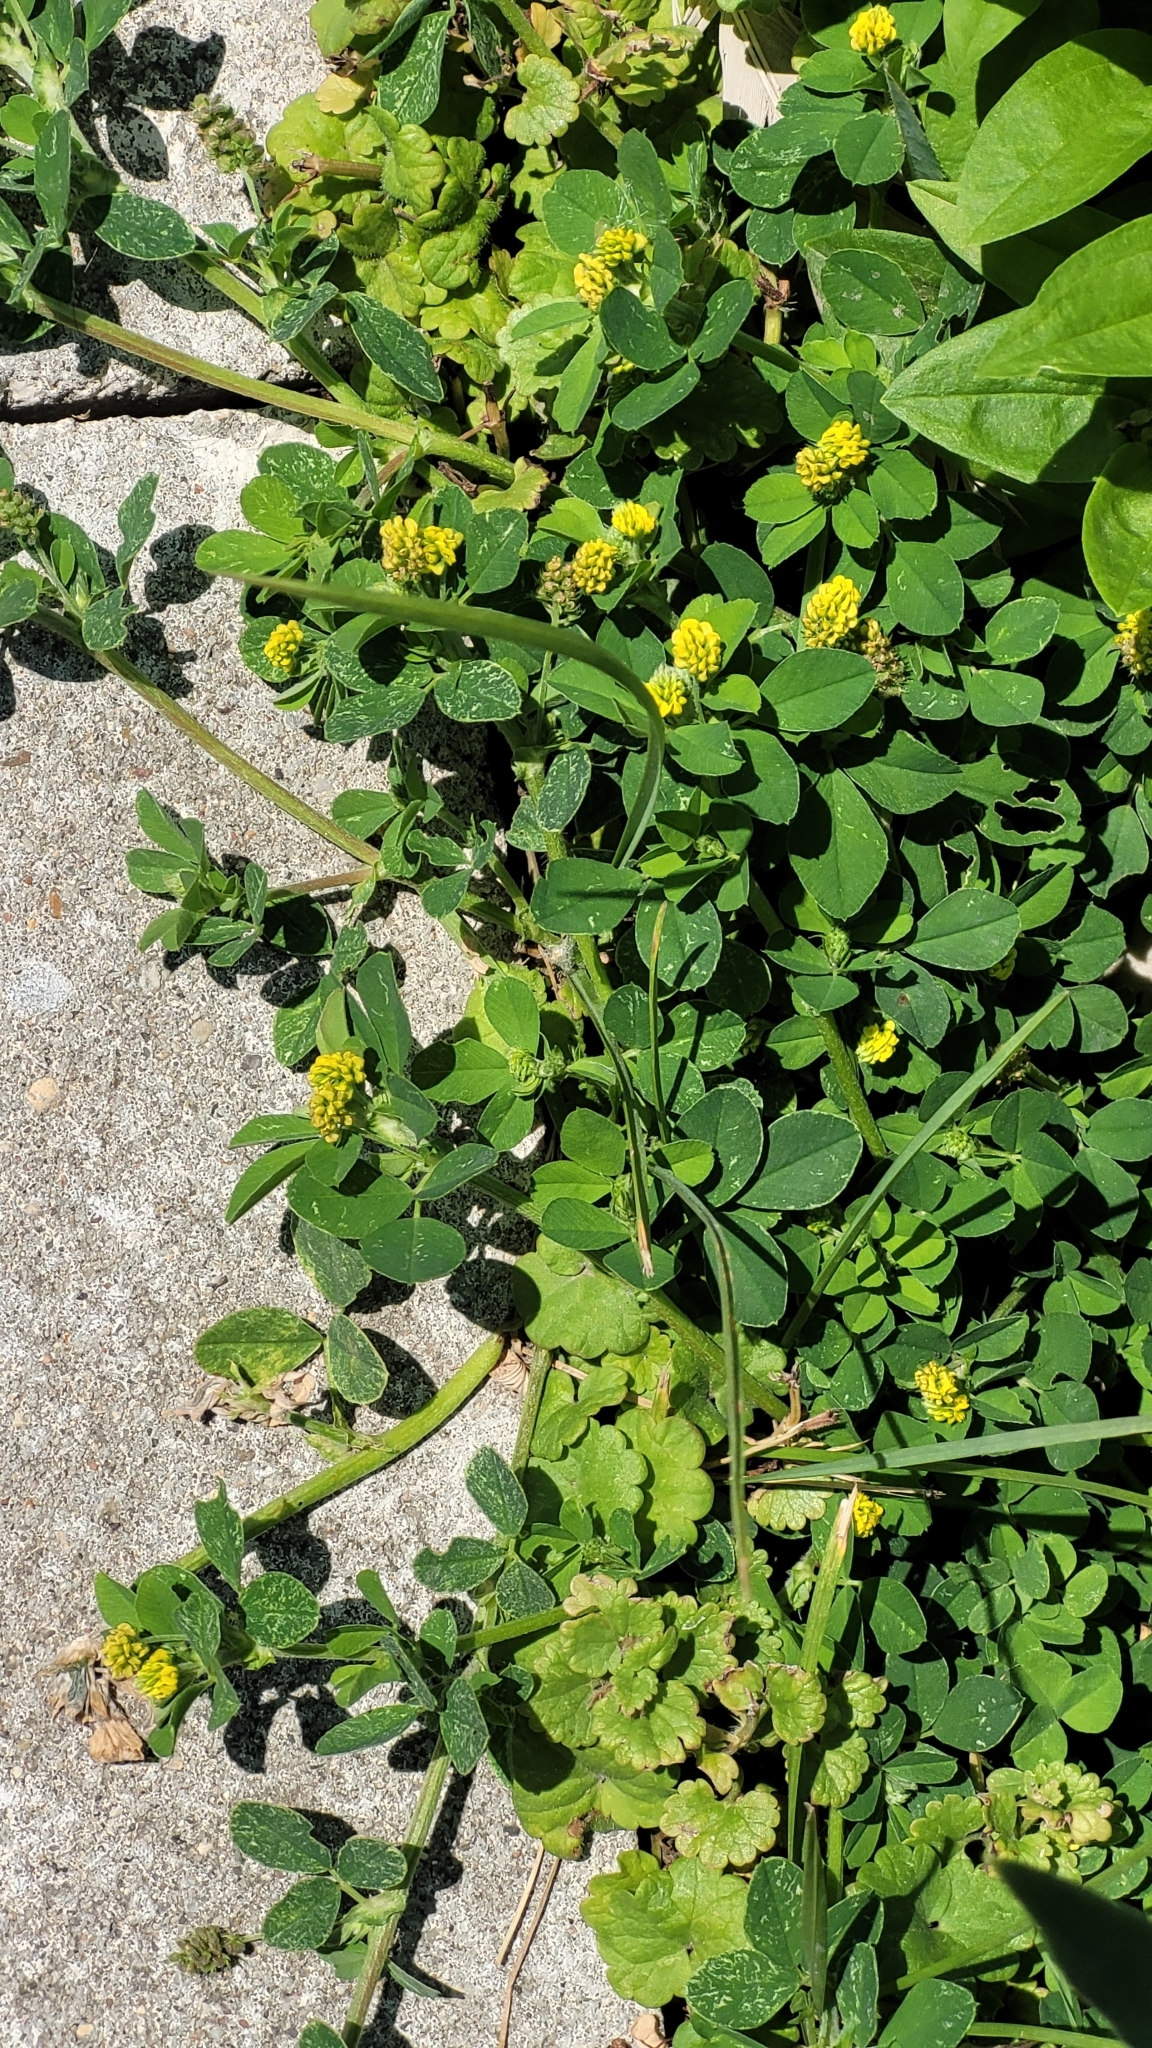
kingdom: Plantae
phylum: Tracheophyta
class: Magnoliopsida
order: Fabales
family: Fabaceae
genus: Medicago
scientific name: Medicago lupulina
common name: Black medick
